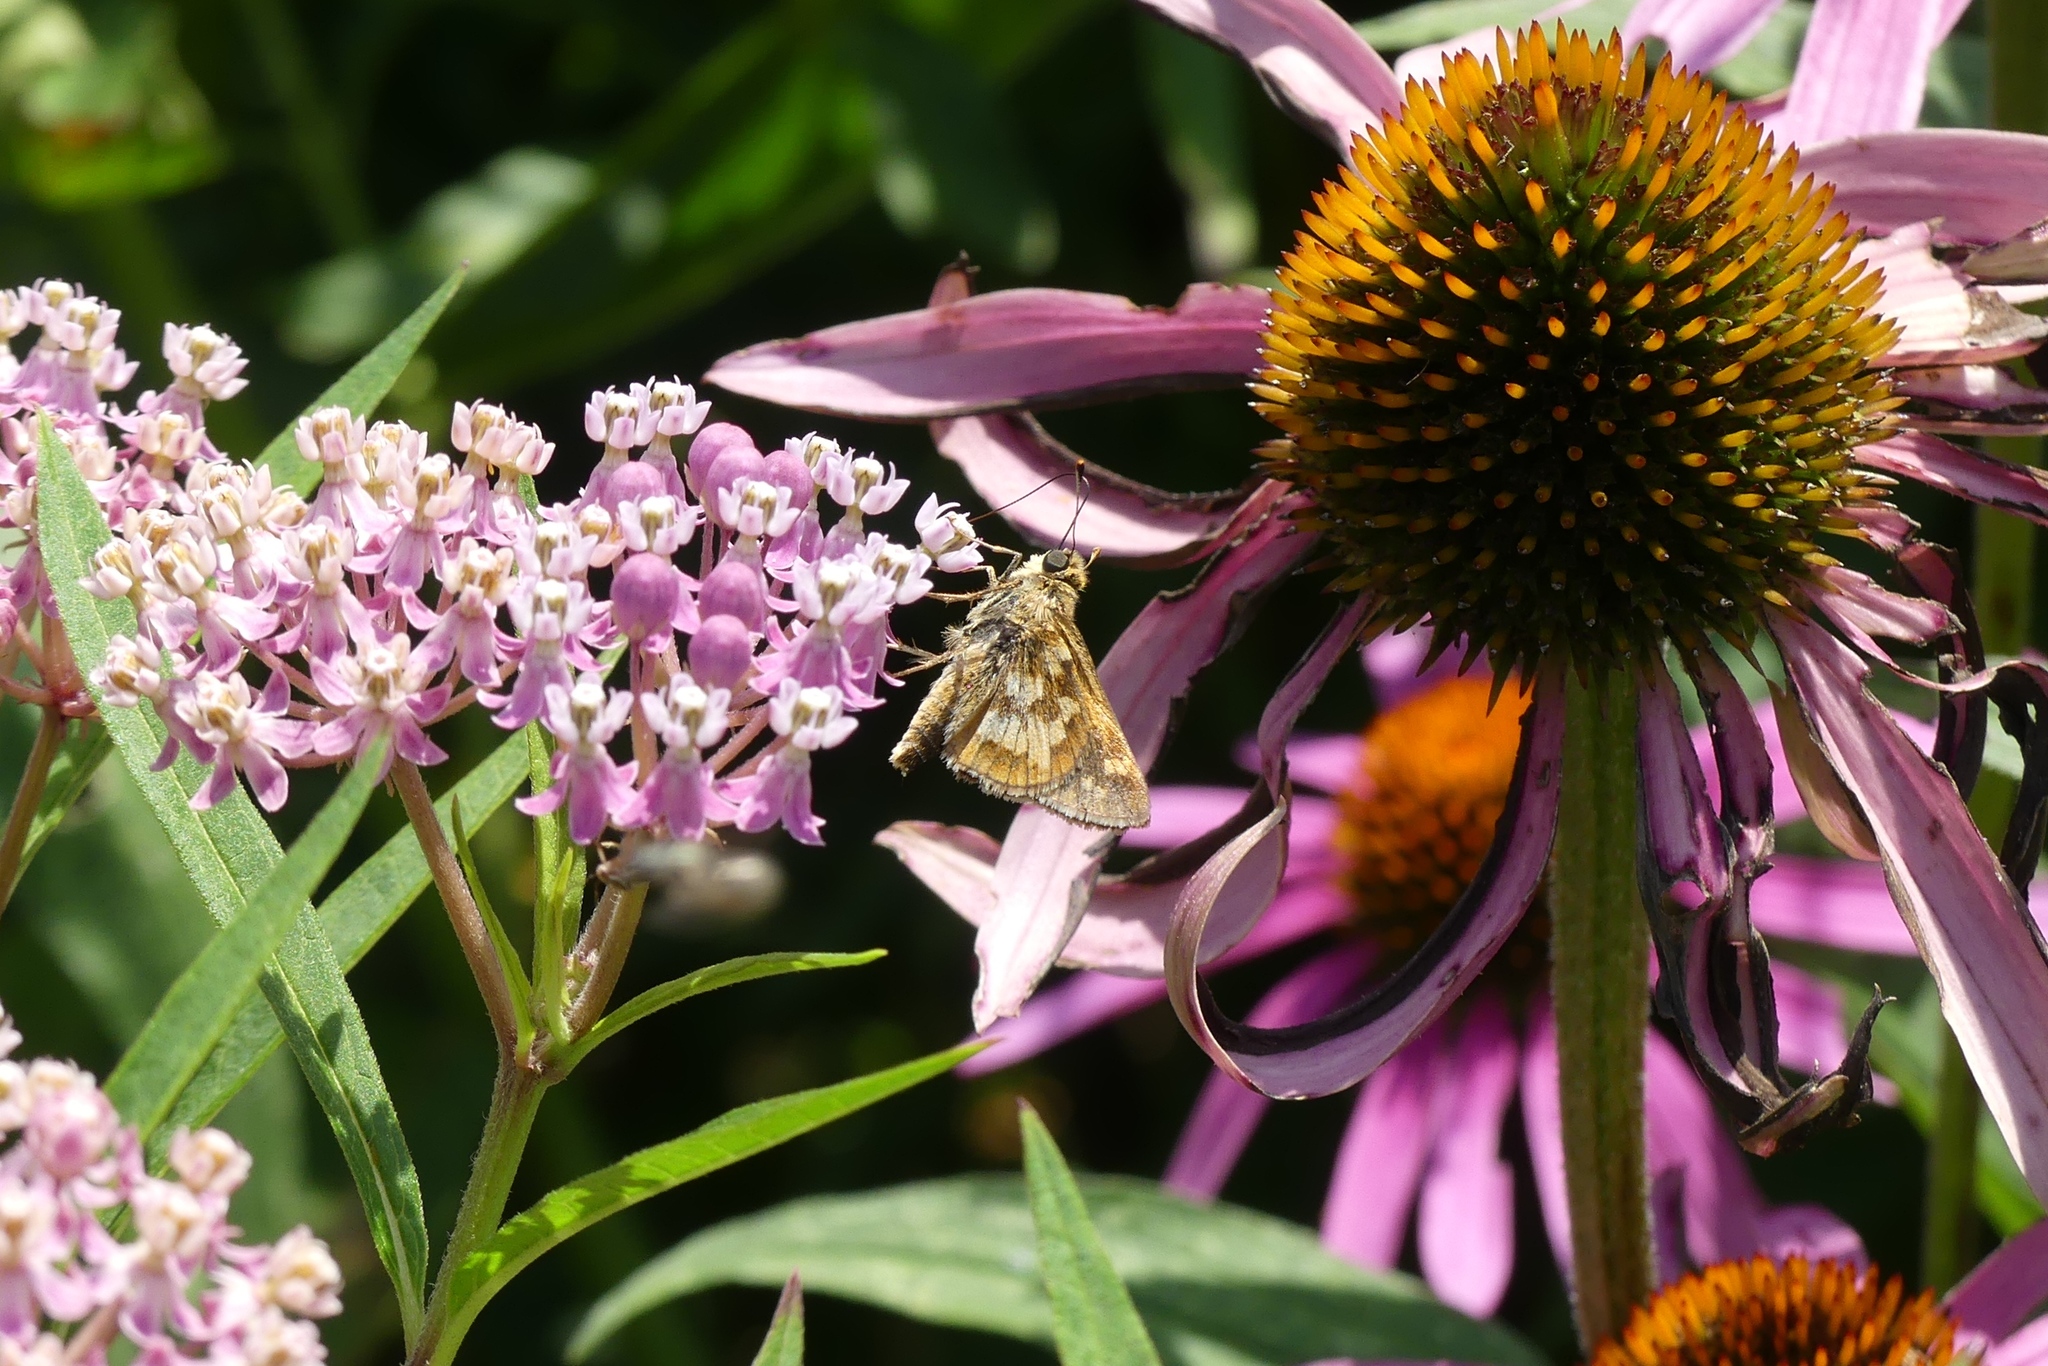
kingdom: Animalia
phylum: Arthropoda
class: Insecta
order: Lepidoptera
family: Hesperiidae
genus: Polites
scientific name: Polites coras
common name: Peck's skipper
